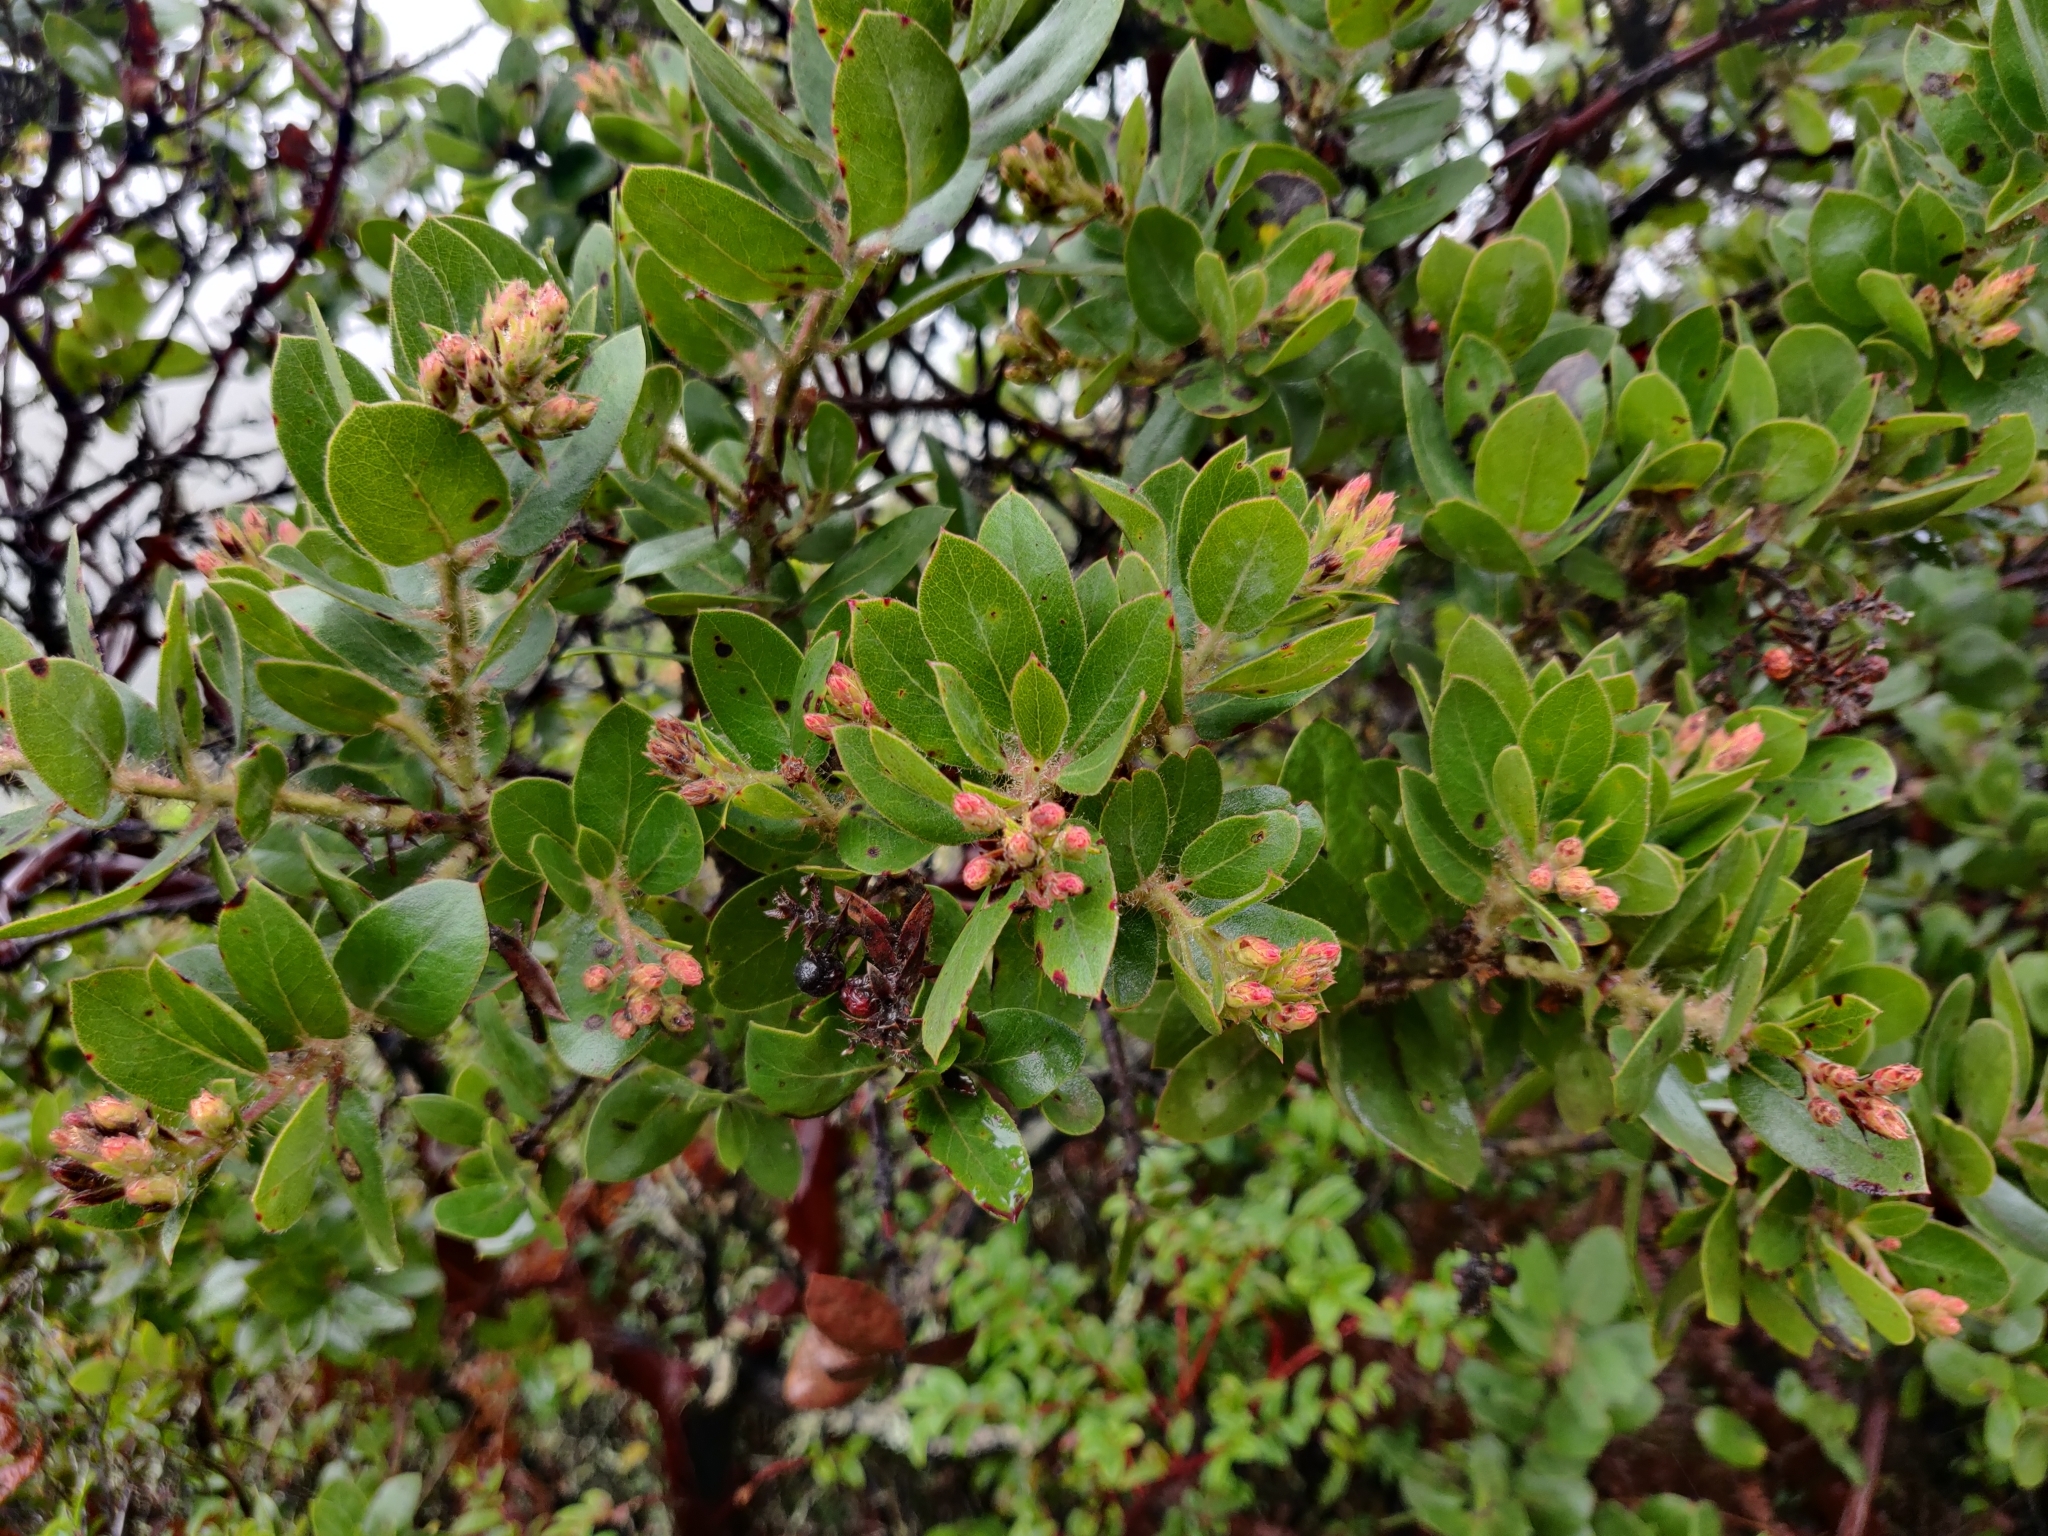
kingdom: Plantae
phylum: Tracheophyta
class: Magnoliopsida
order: Ericales
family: Ericaceae
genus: Arctostaphylos
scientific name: Arctostaphylos crustacea
